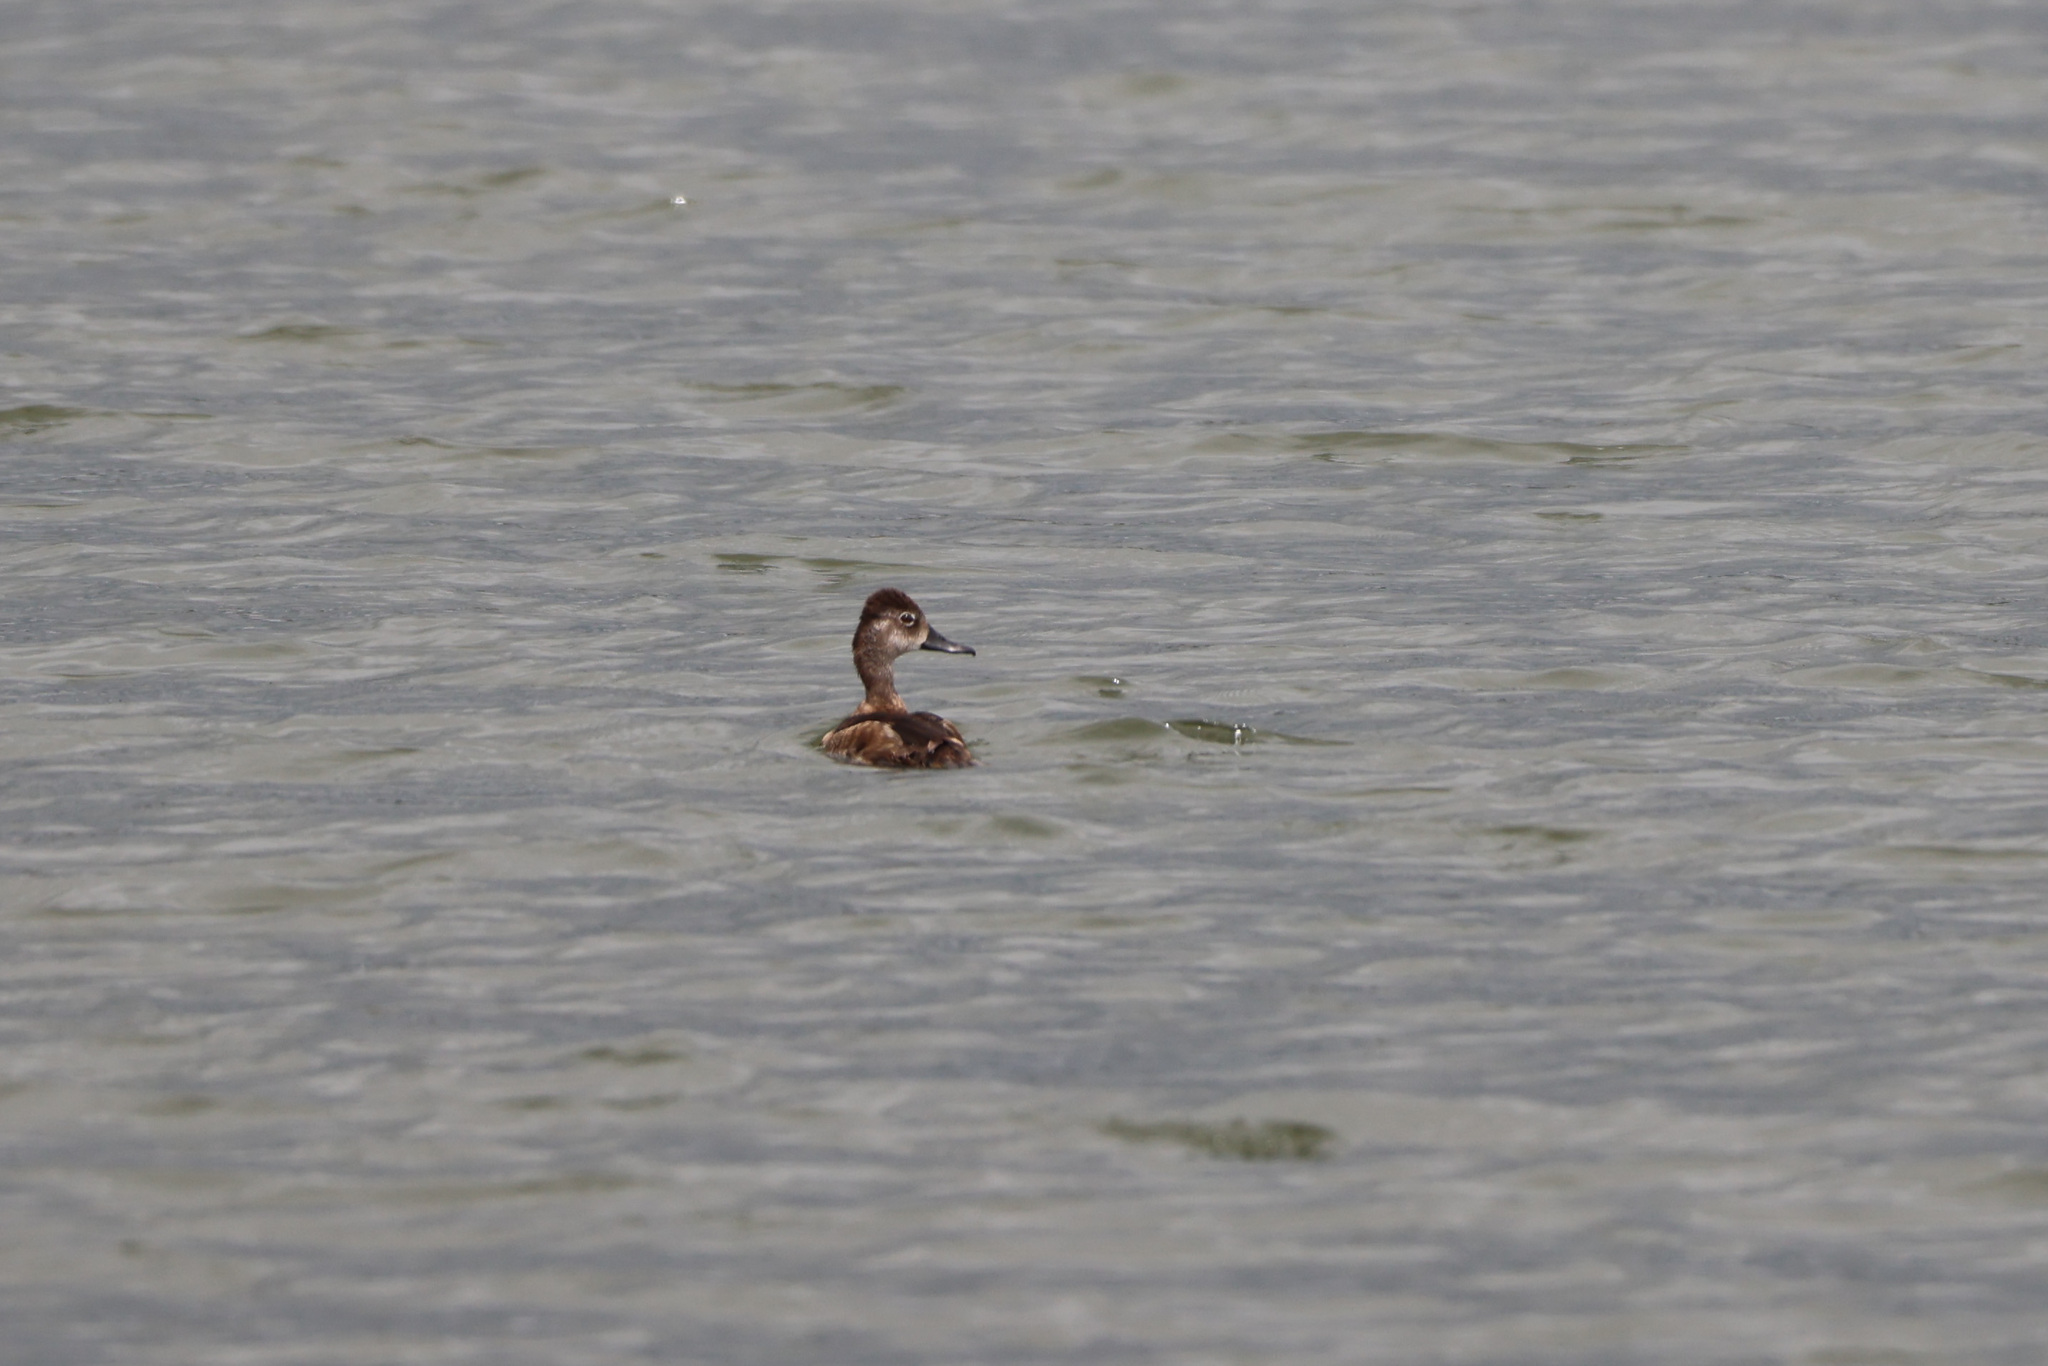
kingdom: Animalia
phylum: Chordata
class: Aves
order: Anseriformes
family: Anatidae
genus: Aythya
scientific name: Aythya collaris
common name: Ring-necked duck
